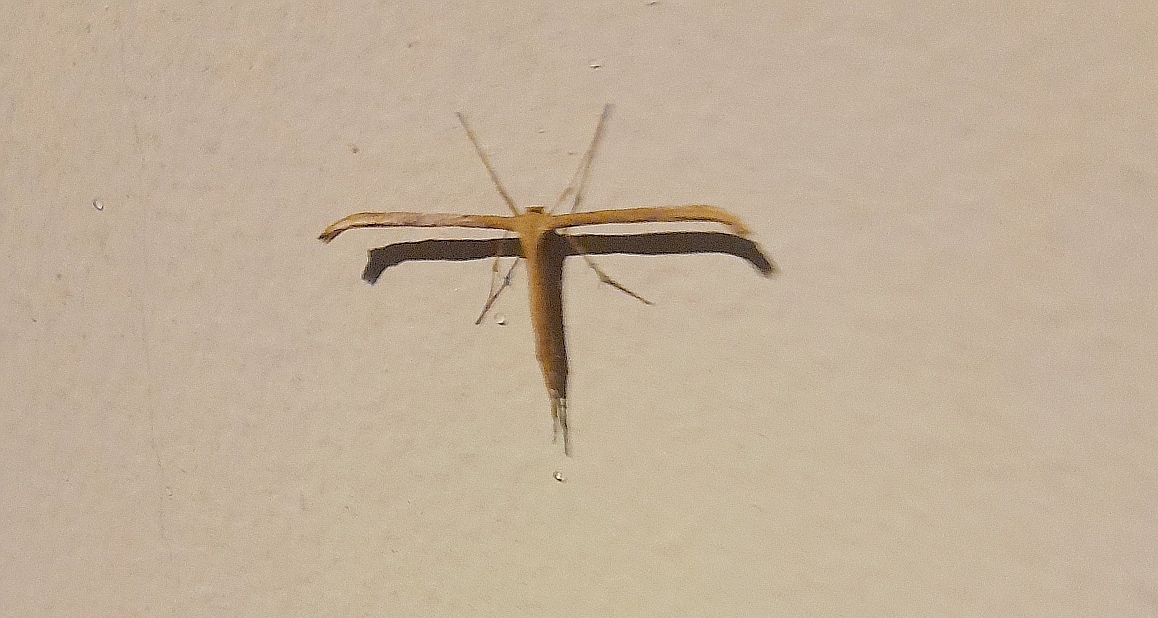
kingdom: Animalia
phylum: Arthropoda
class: Insecta
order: Lepidoptera
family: Pterophoridae
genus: Emmelina
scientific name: Emmelina monodactyla
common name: Common plume
